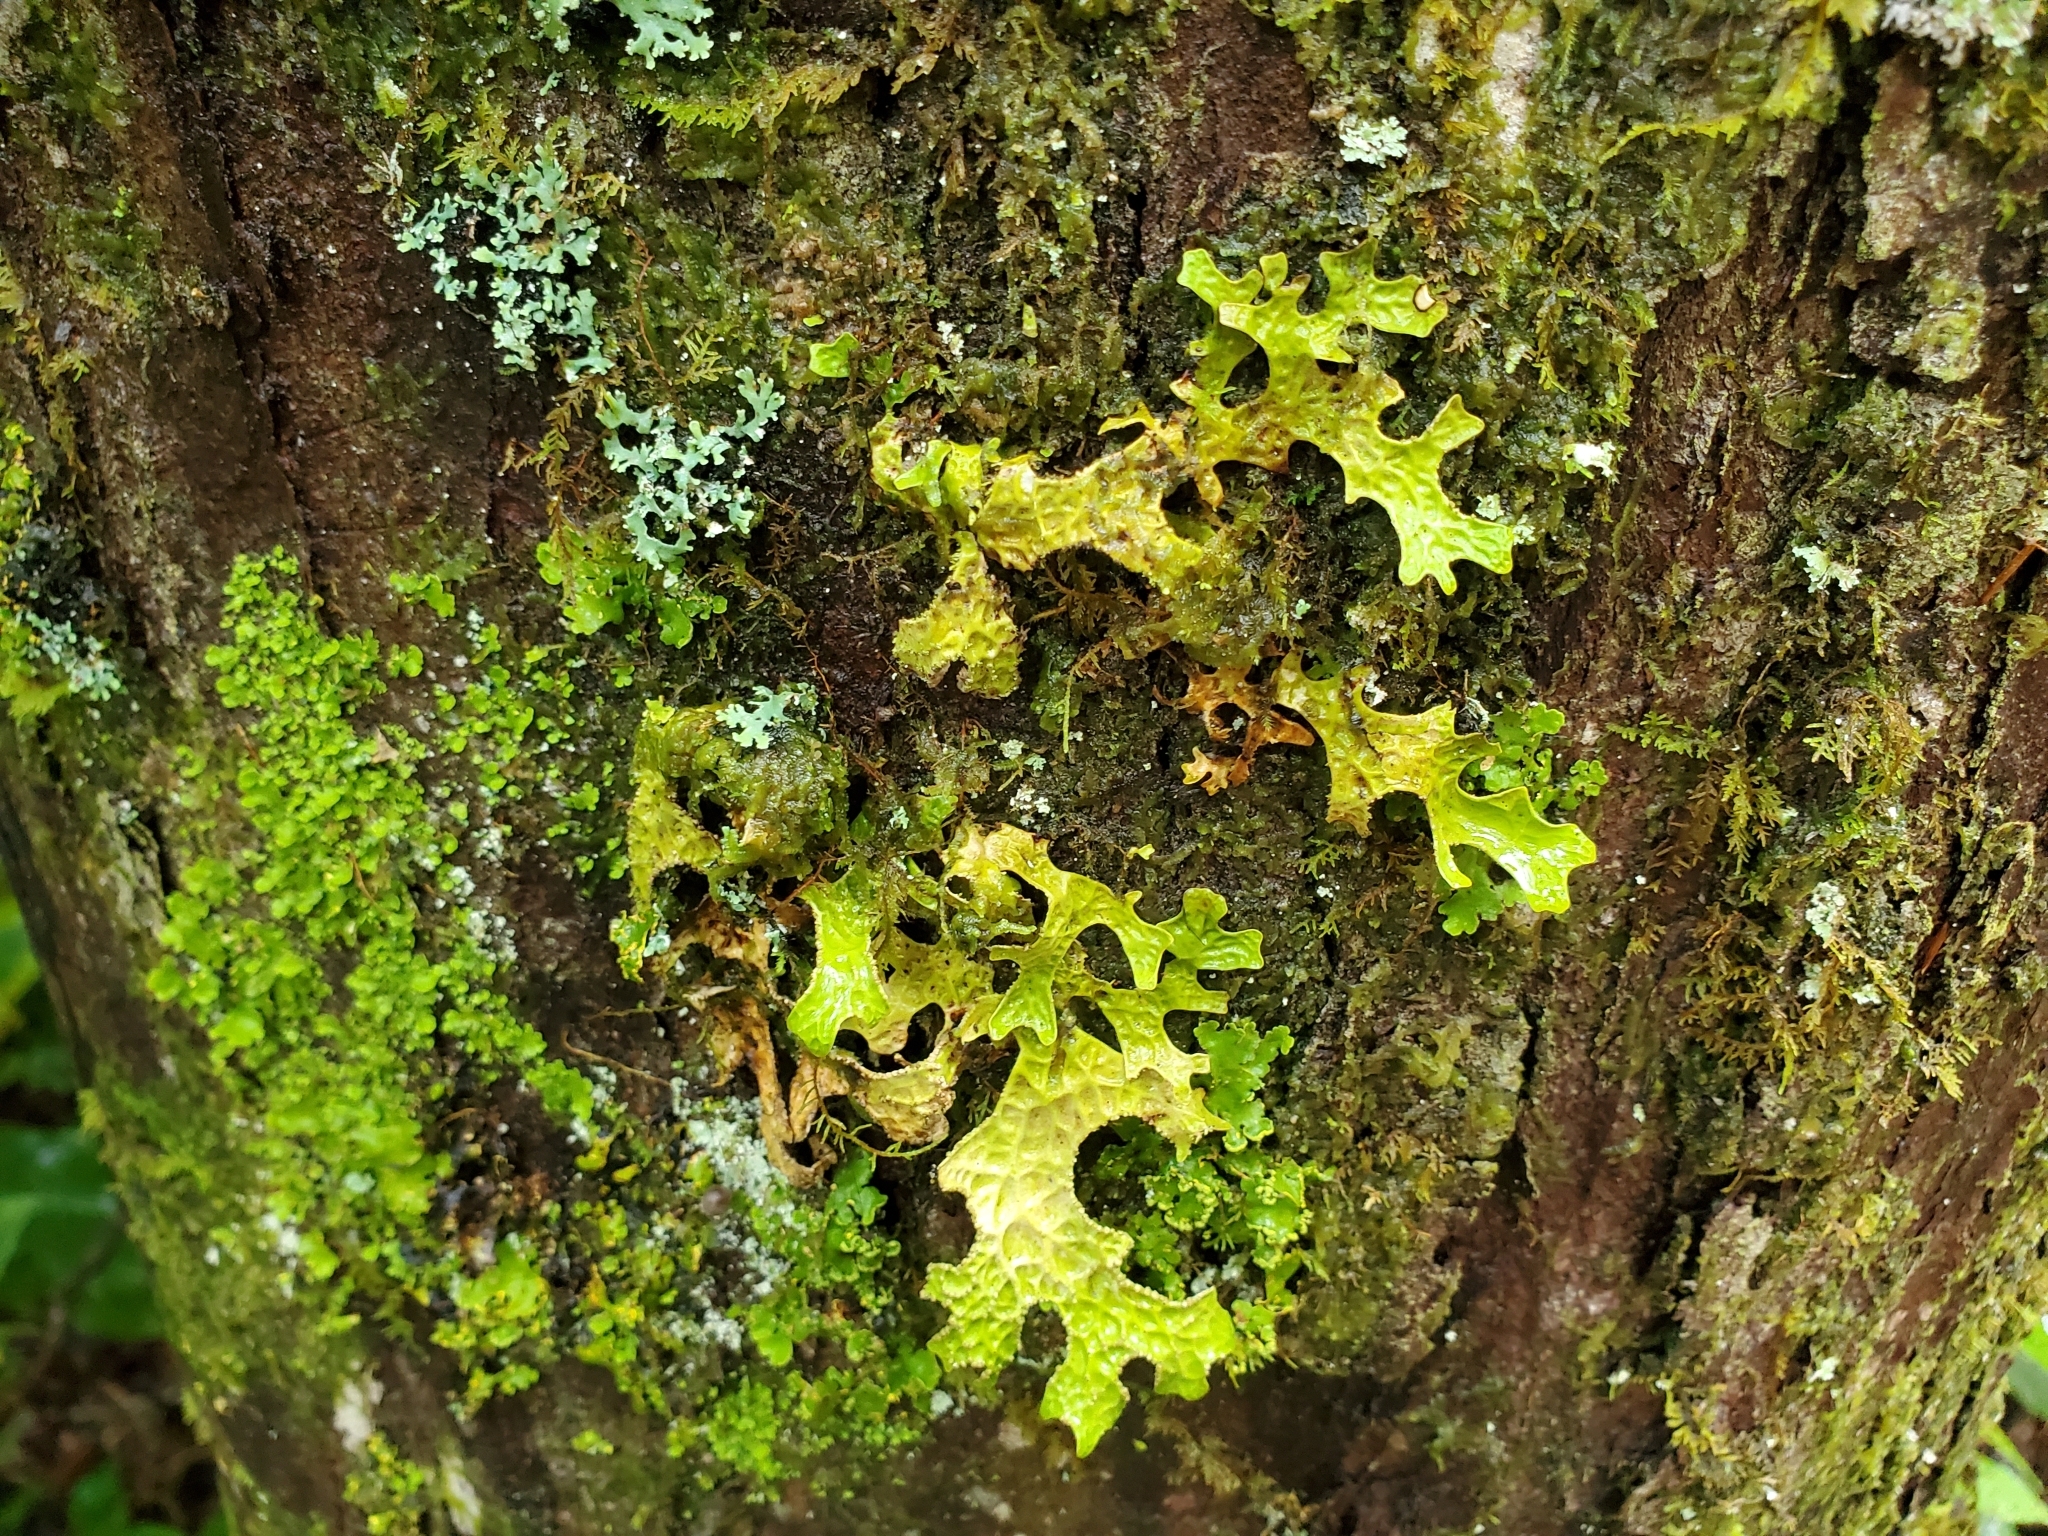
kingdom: Fungi
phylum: Ascomycota
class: Lecanoromycetes
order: Peltigerales
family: Lobariaceae
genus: Lobaria
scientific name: Lobaria pulmonaria
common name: Lungwort
